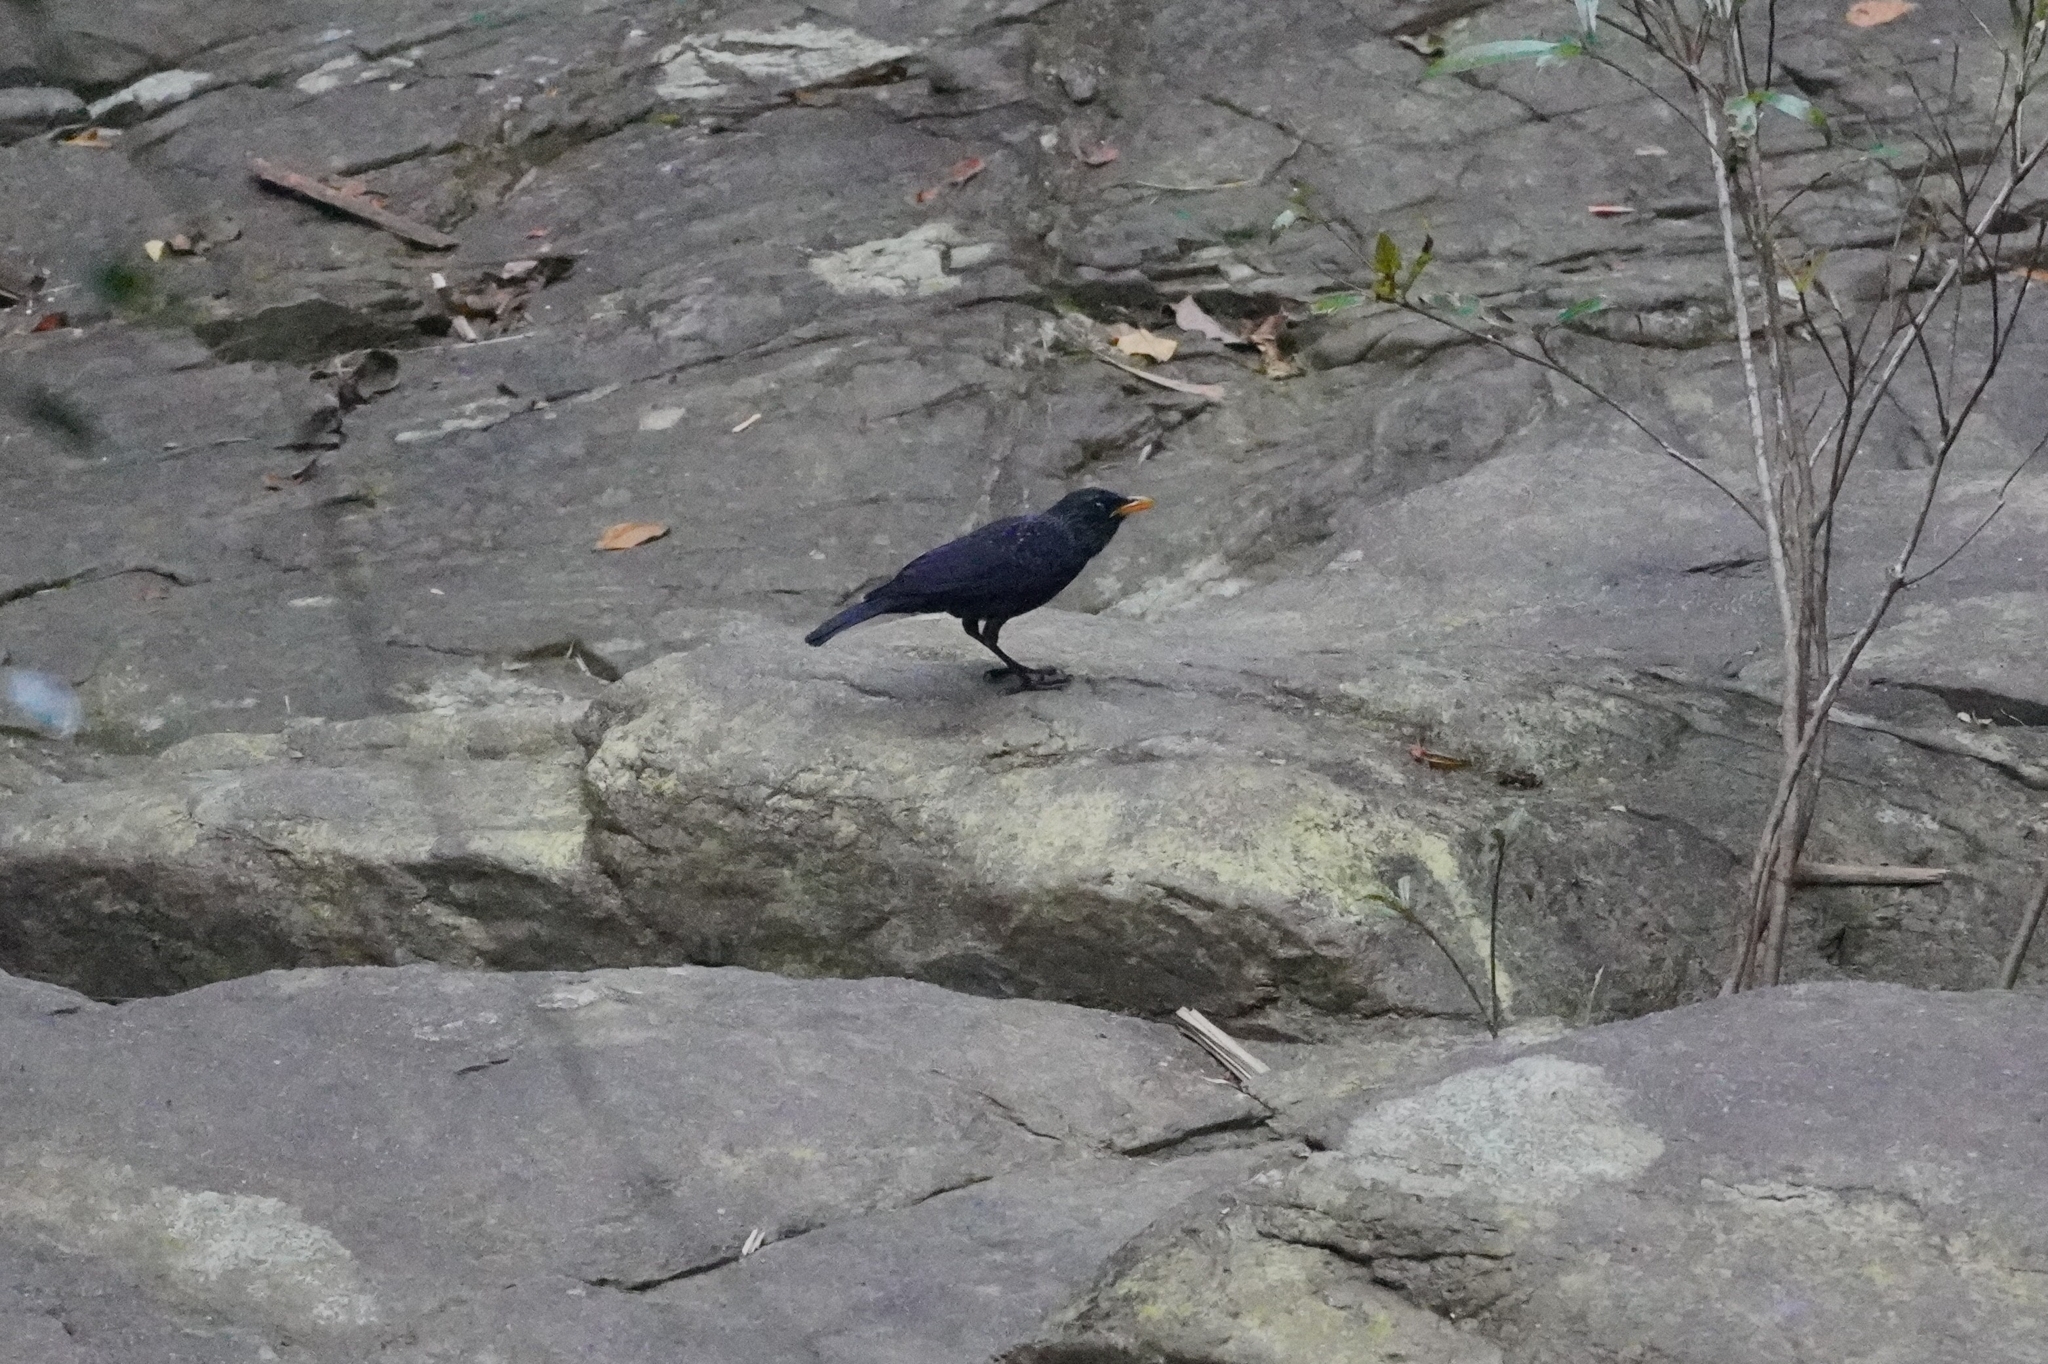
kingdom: Animalia
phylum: Chordata
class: Aves
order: Passeriformes
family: Muscicapidae
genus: Myophonus
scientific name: Myophonus caeruleus
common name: Blue whistling-thrush
